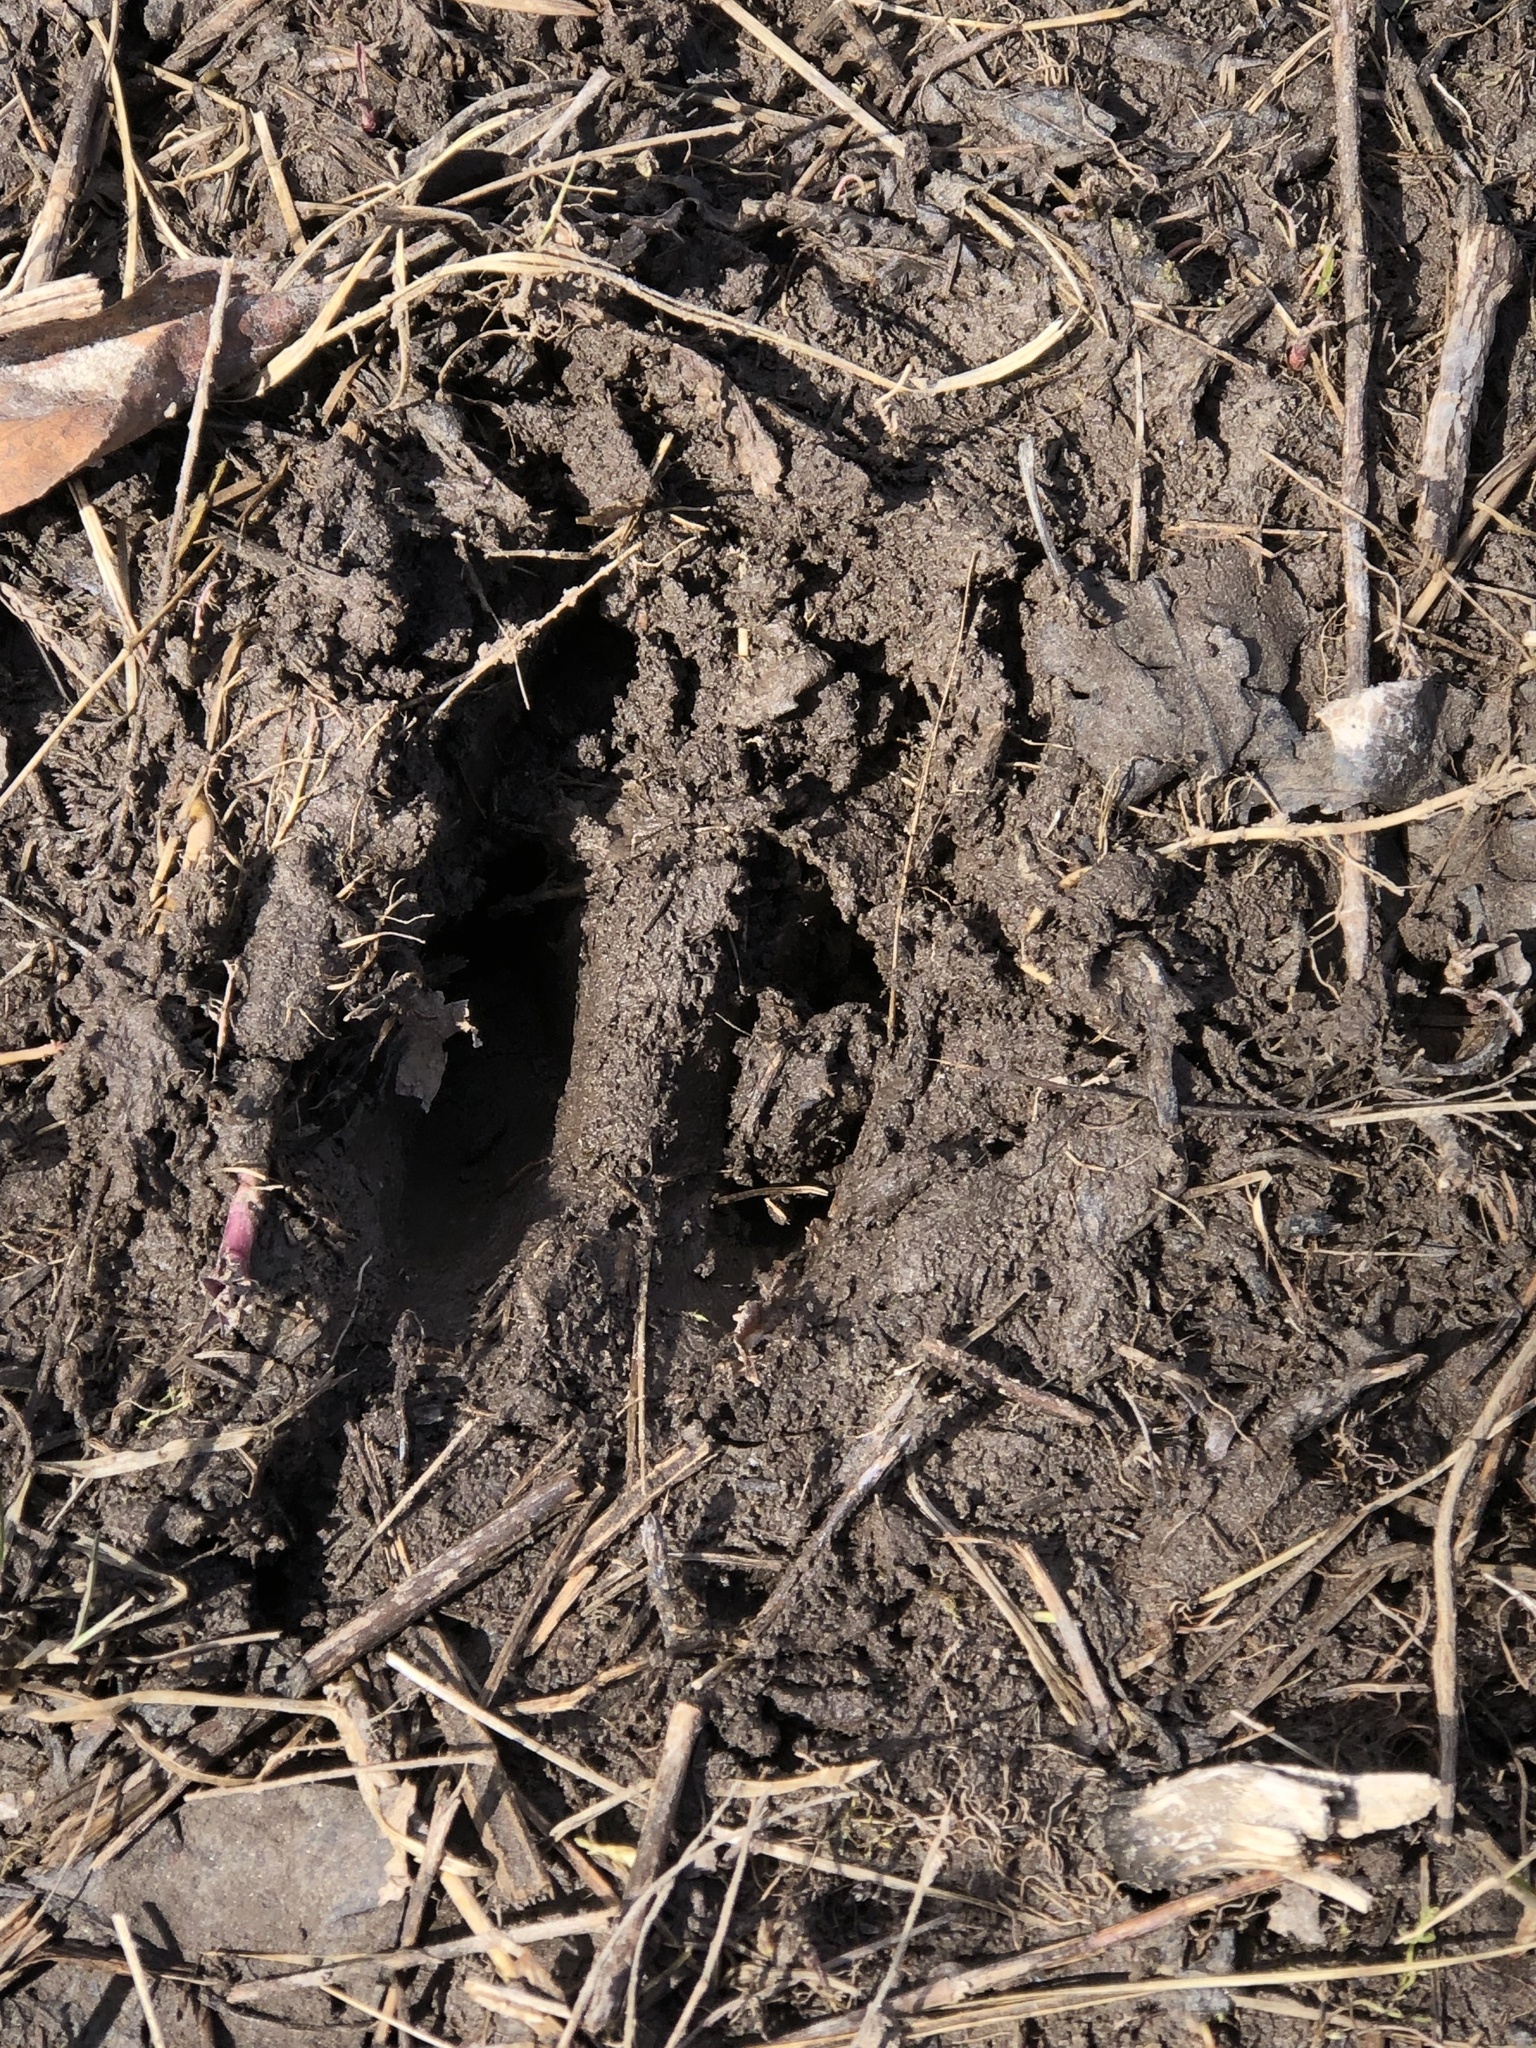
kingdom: Animalia
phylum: Chordata
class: Mammalia
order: Artiodactyla
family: Cervidae
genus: Odocoileus
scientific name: Odocoileus virginianus
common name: White-tailed deer
